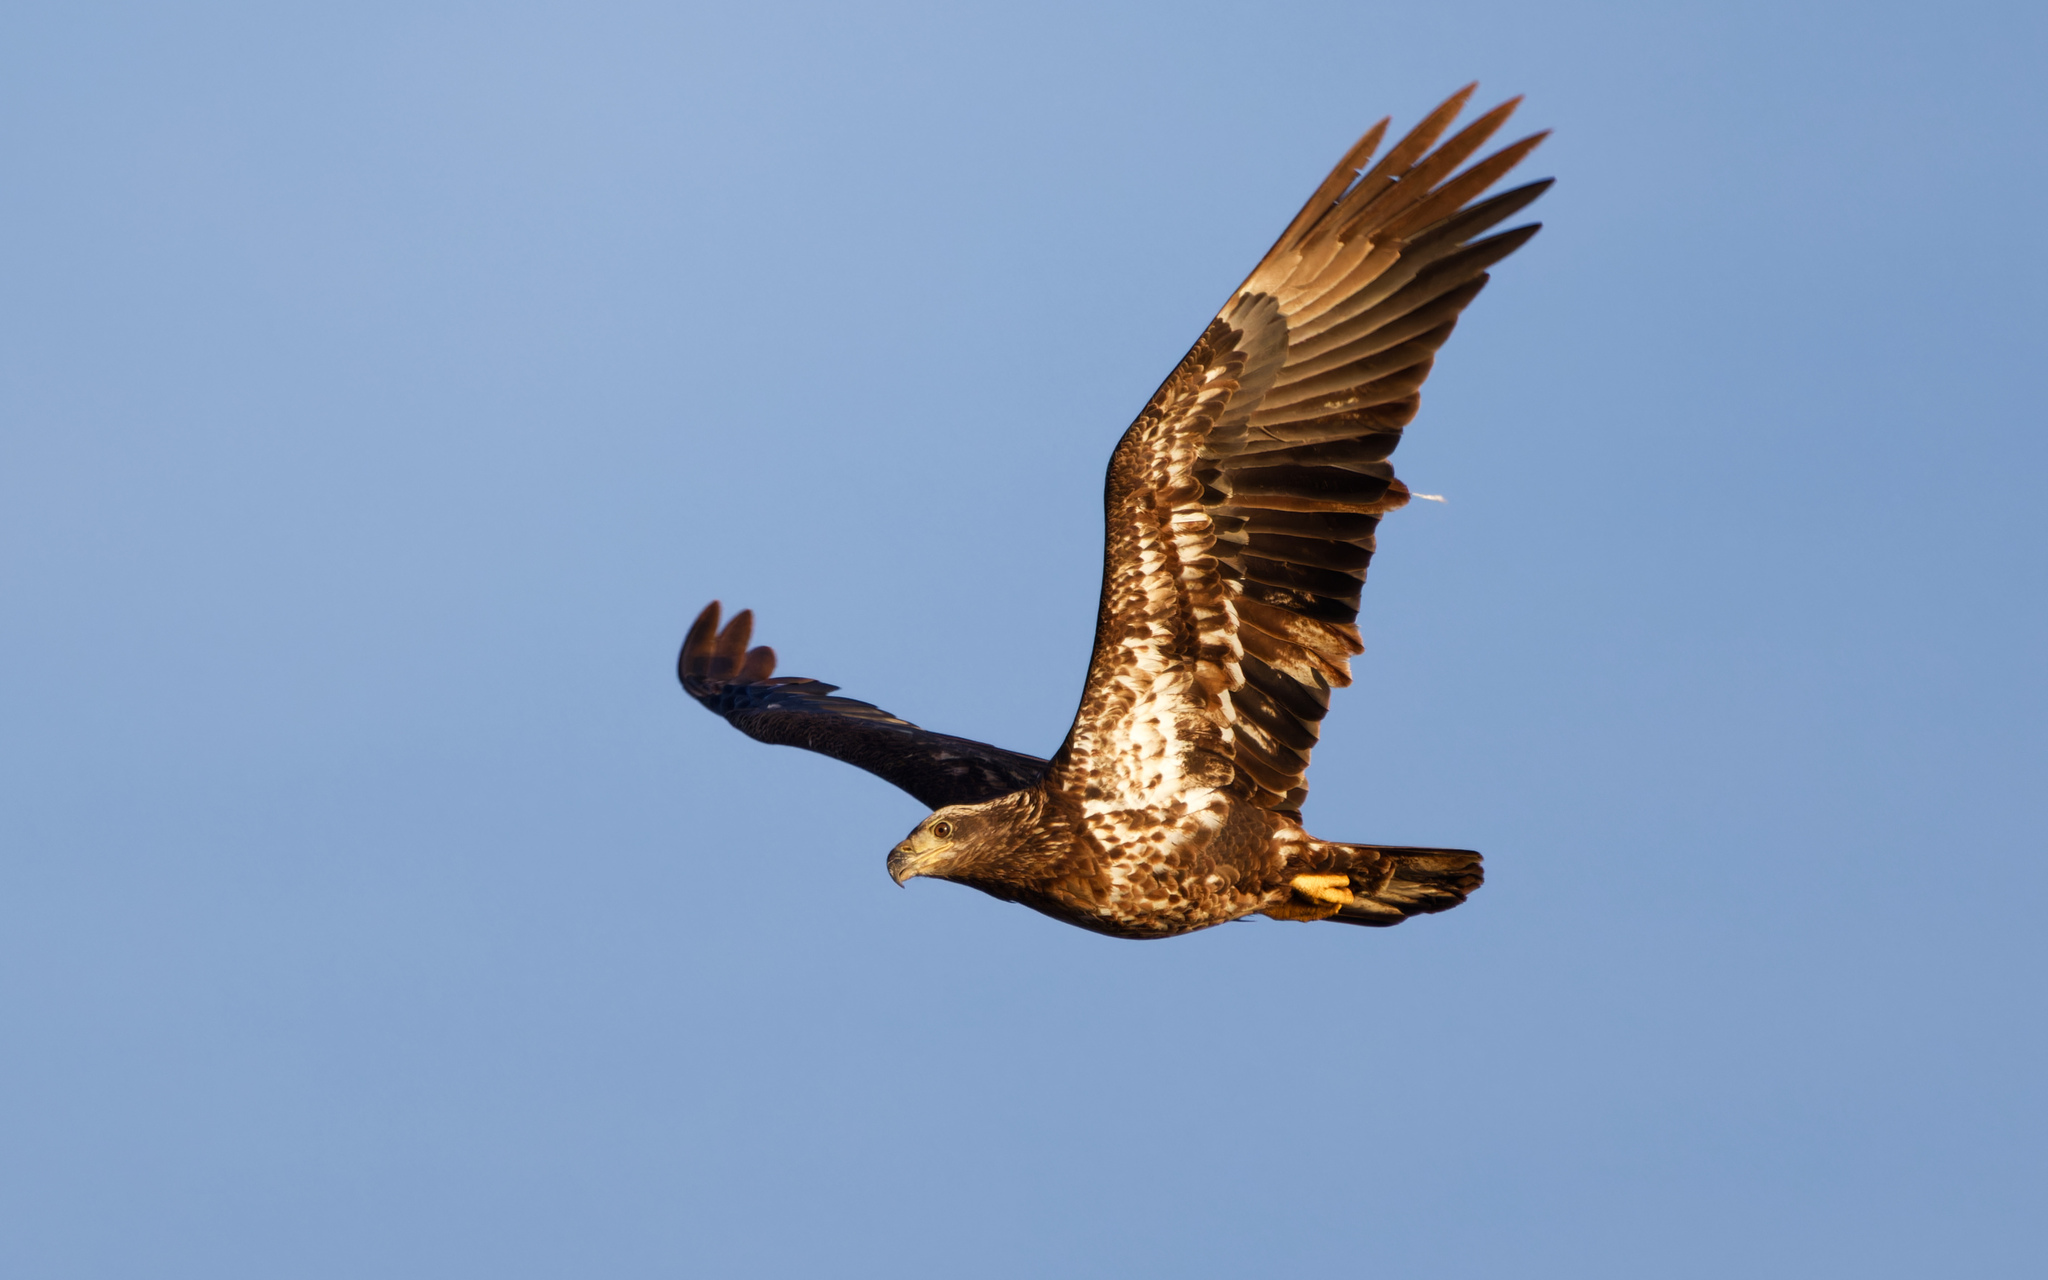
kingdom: Animalia
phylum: Chordata
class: Aves
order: Accipitriformes
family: Accipitridae
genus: Haliaeetus
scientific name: Haliaeetus leucocephalus
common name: Bald eagle
